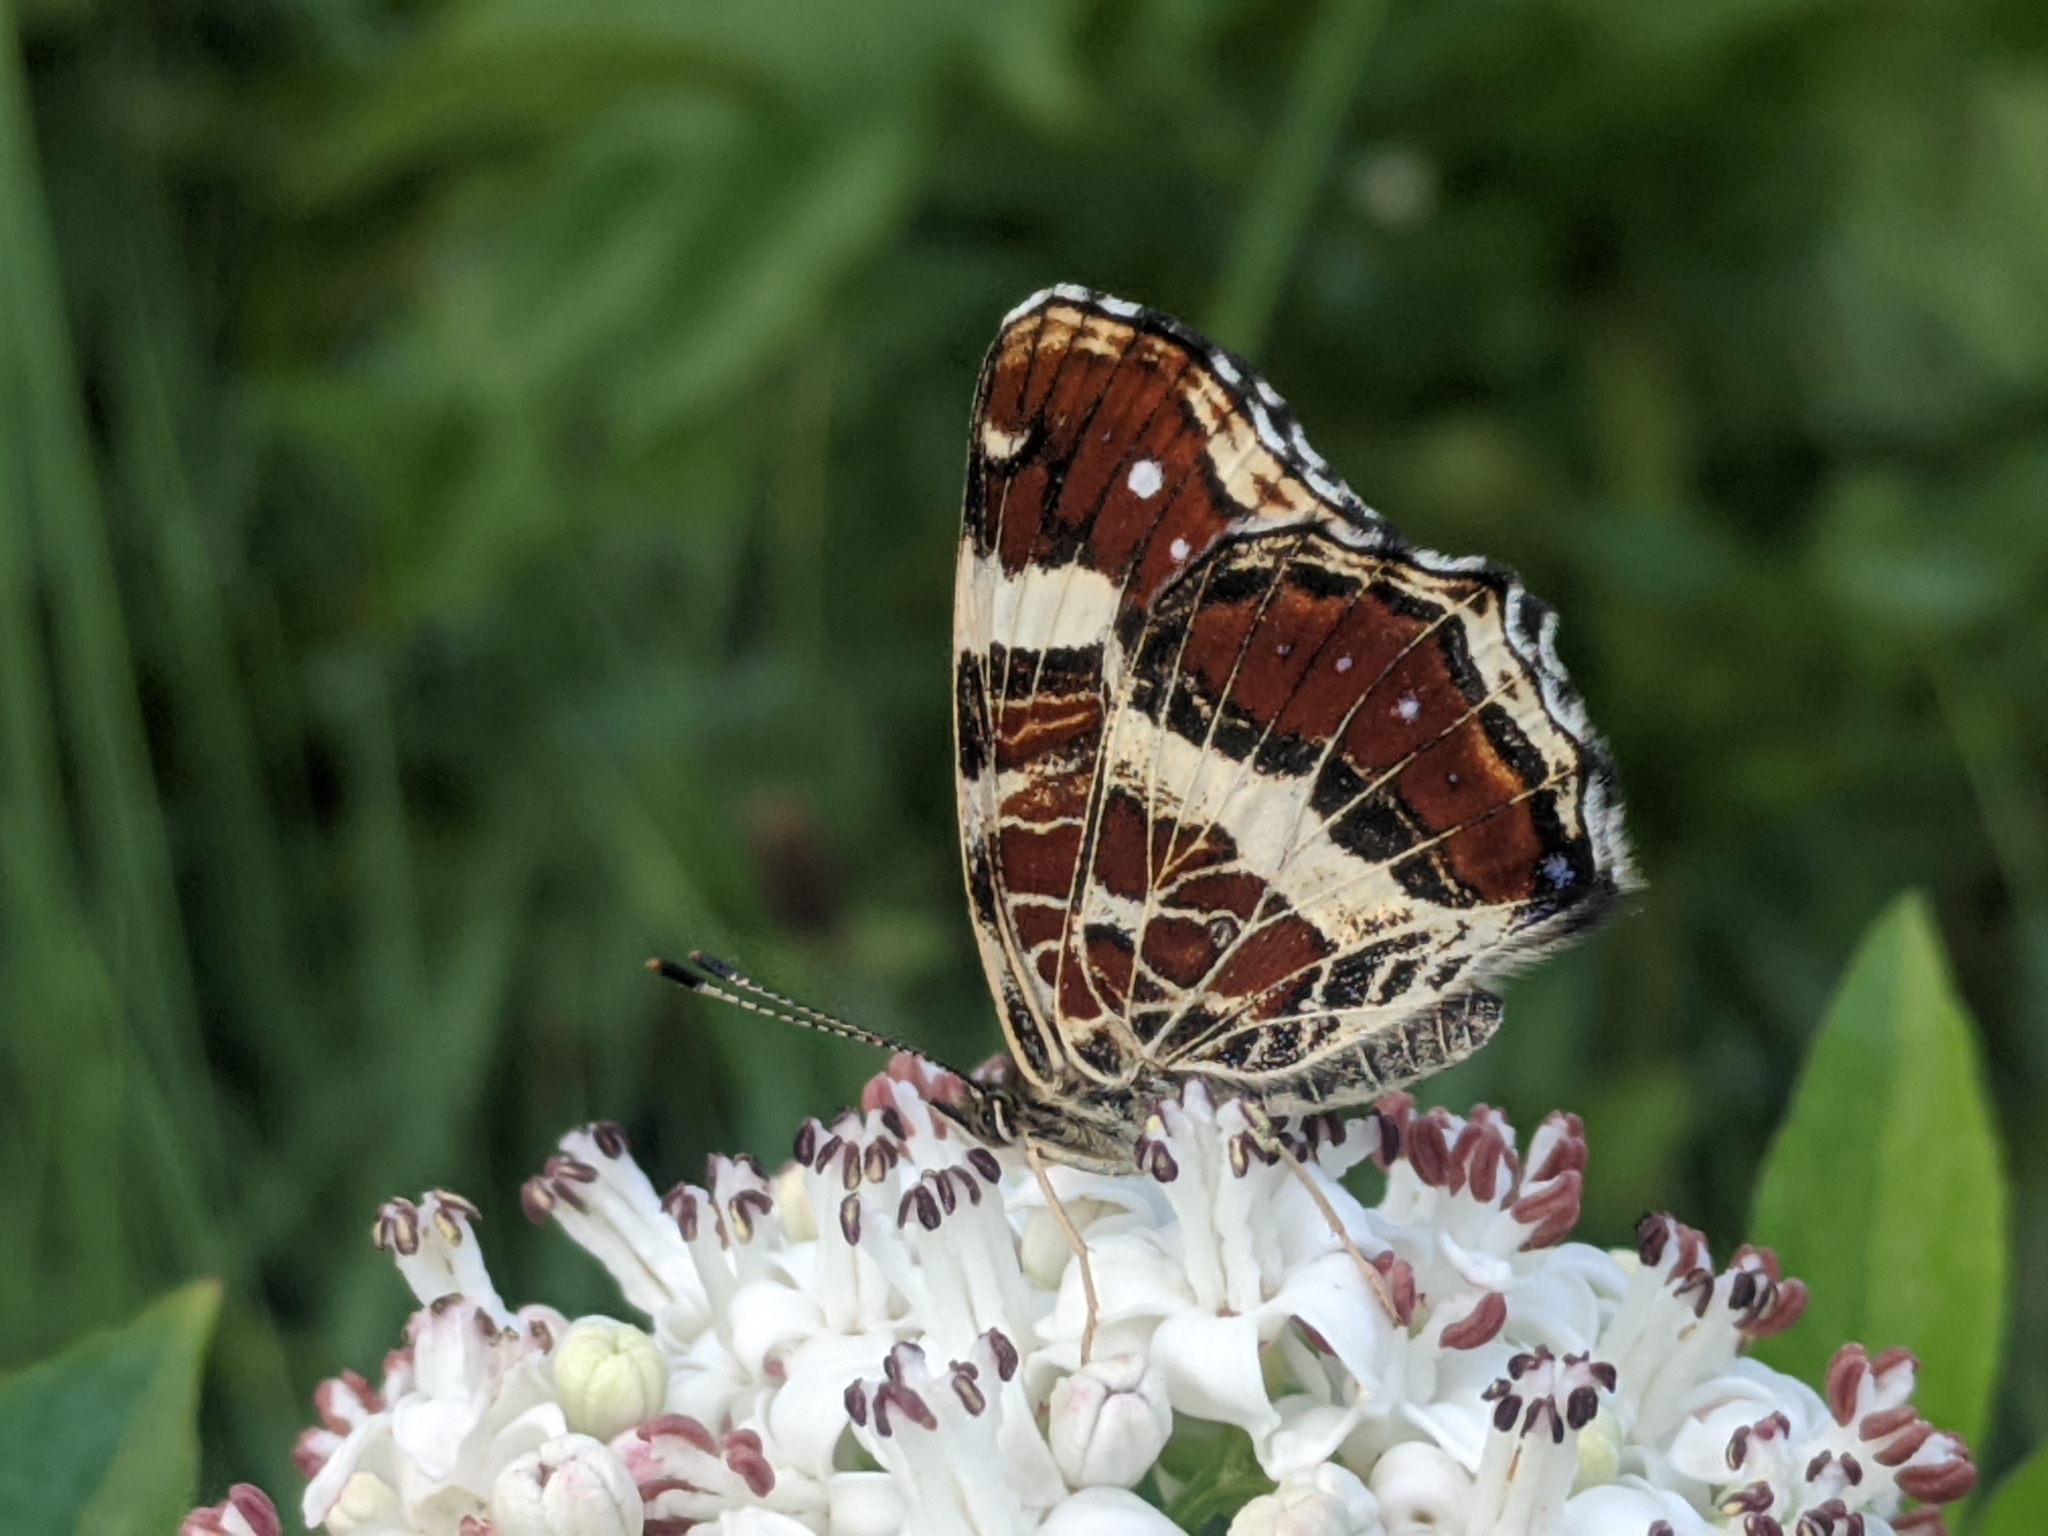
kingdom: Animalia
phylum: Arthropoda
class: Insecta
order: Lepidoptera
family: Nymphalidae
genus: Araschnia
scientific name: Araschnia levana
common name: Map butterfly
